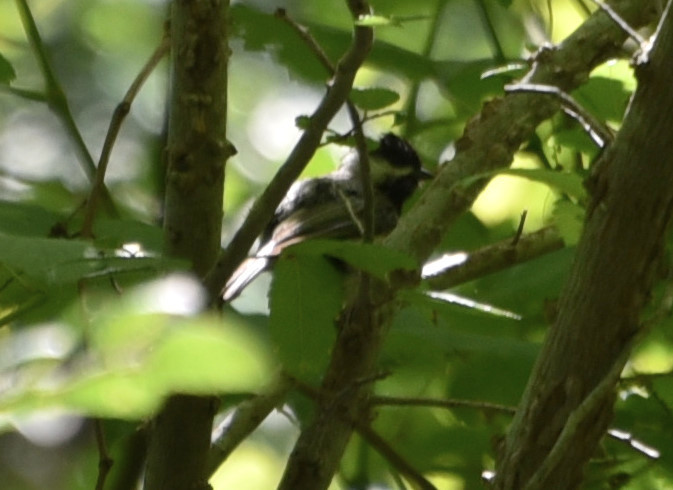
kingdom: Animalia
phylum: Chordata
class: Aves
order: Passeriformes
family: Paridae
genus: Poecile
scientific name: Poecile carolinensis
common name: Carolina chickadee
